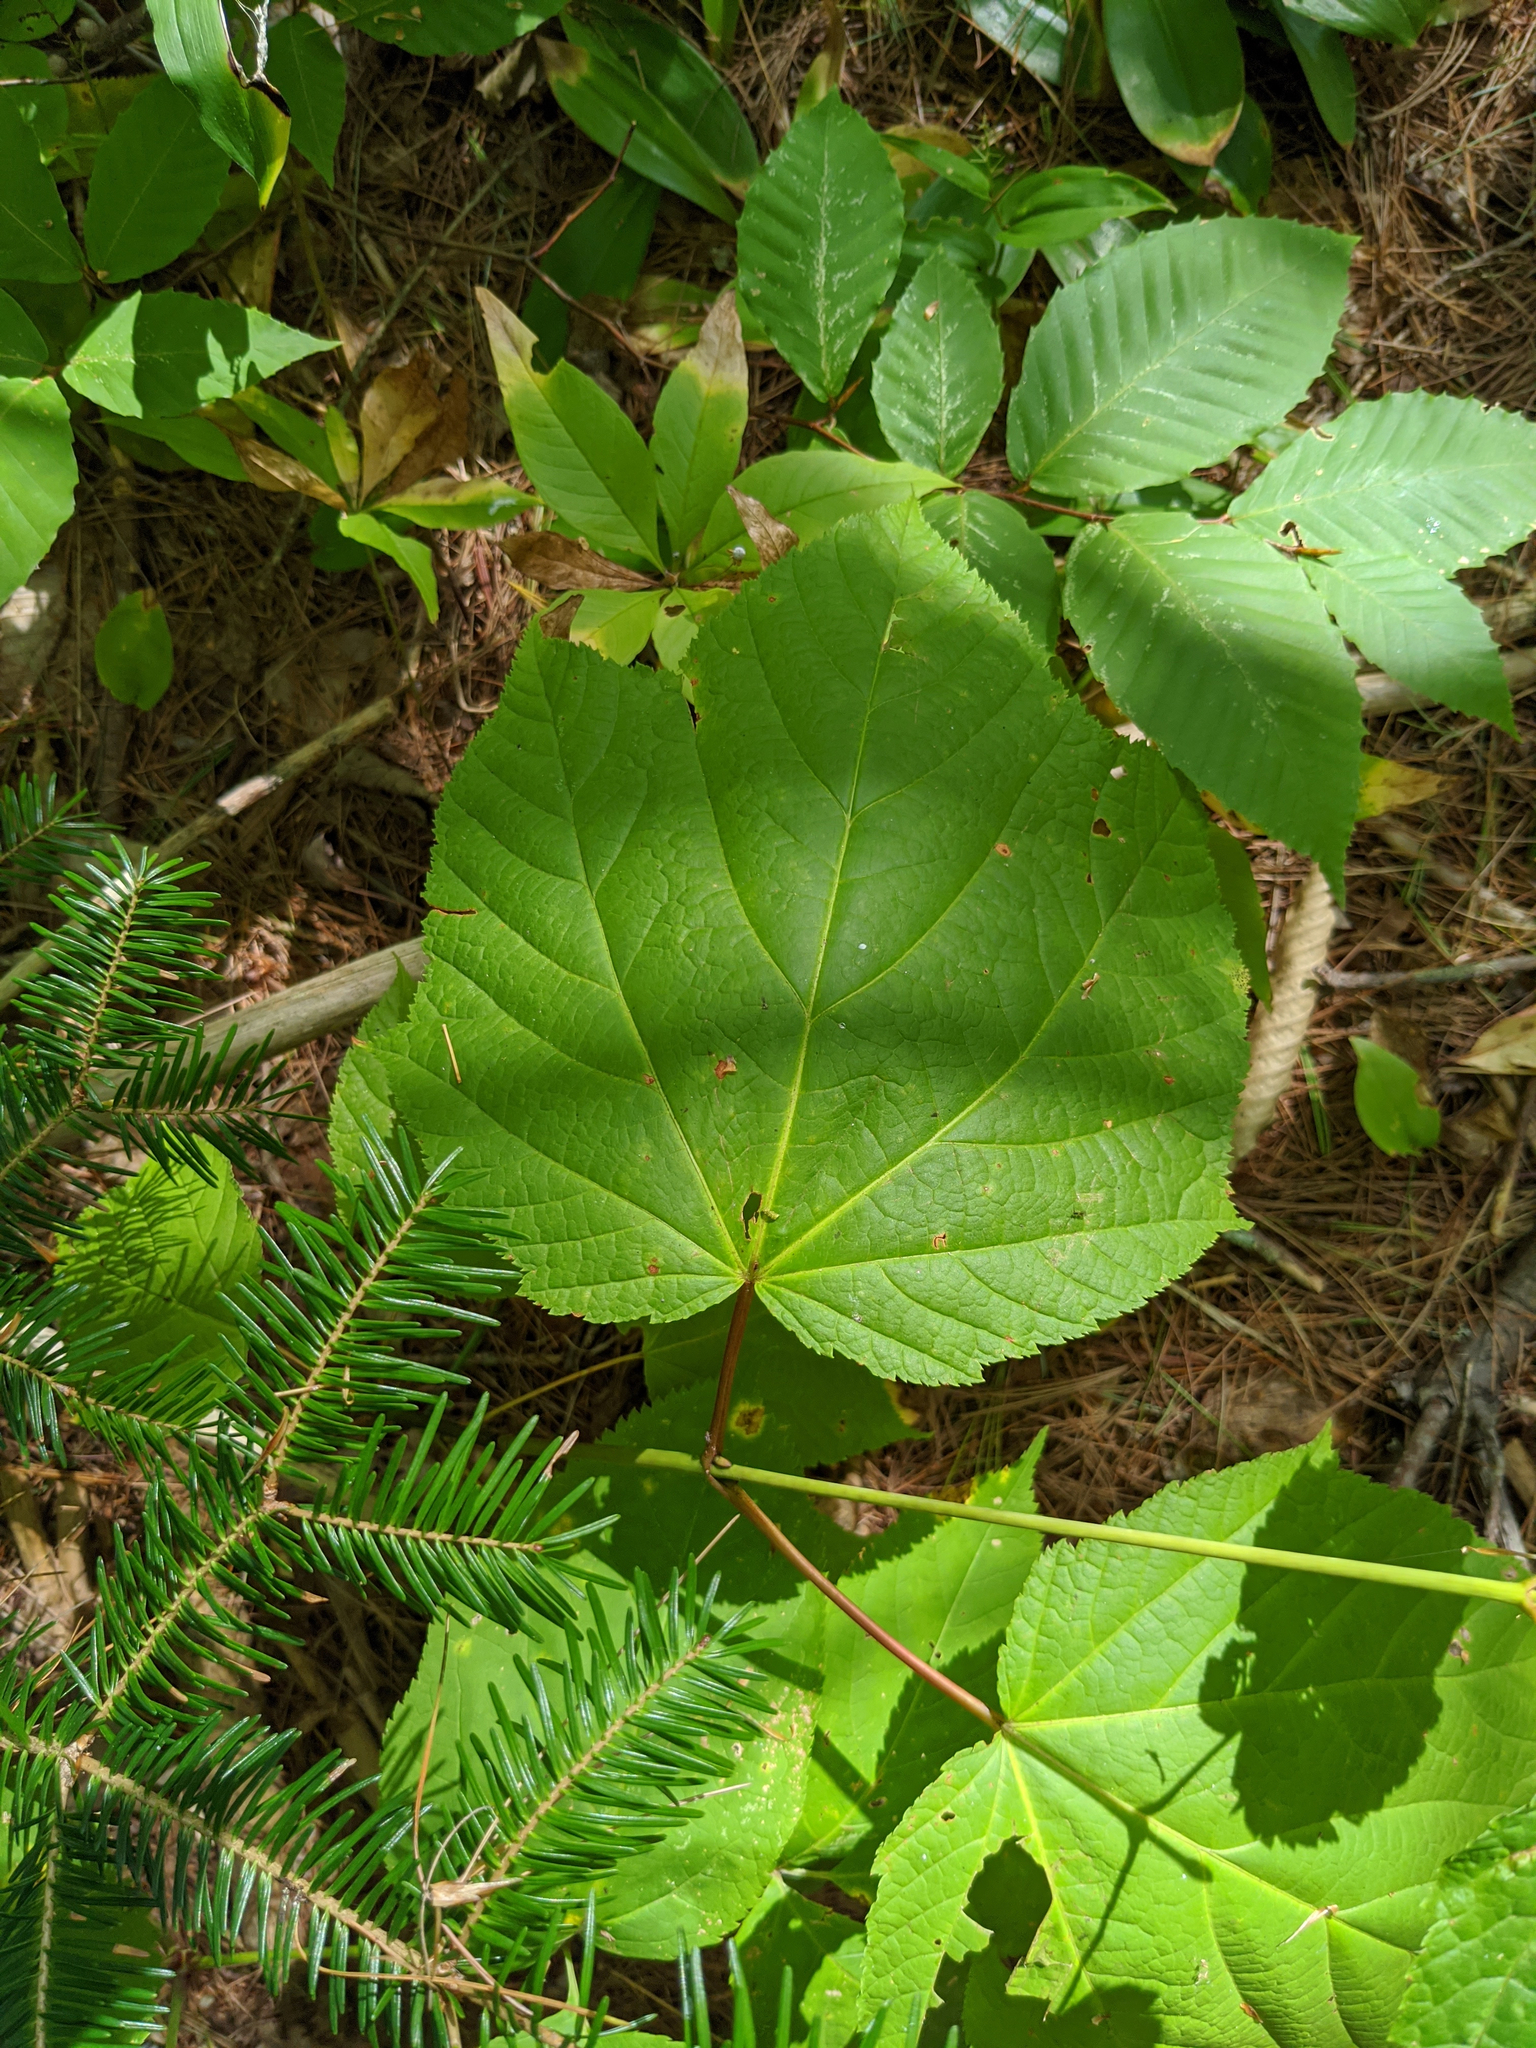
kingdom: Plantae
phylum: Tracheophyta
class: Magnoliopsida
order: Sapindales
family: Sapindaceae
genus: Acer
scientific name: Acer pensylvanicum
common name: Moosewood
